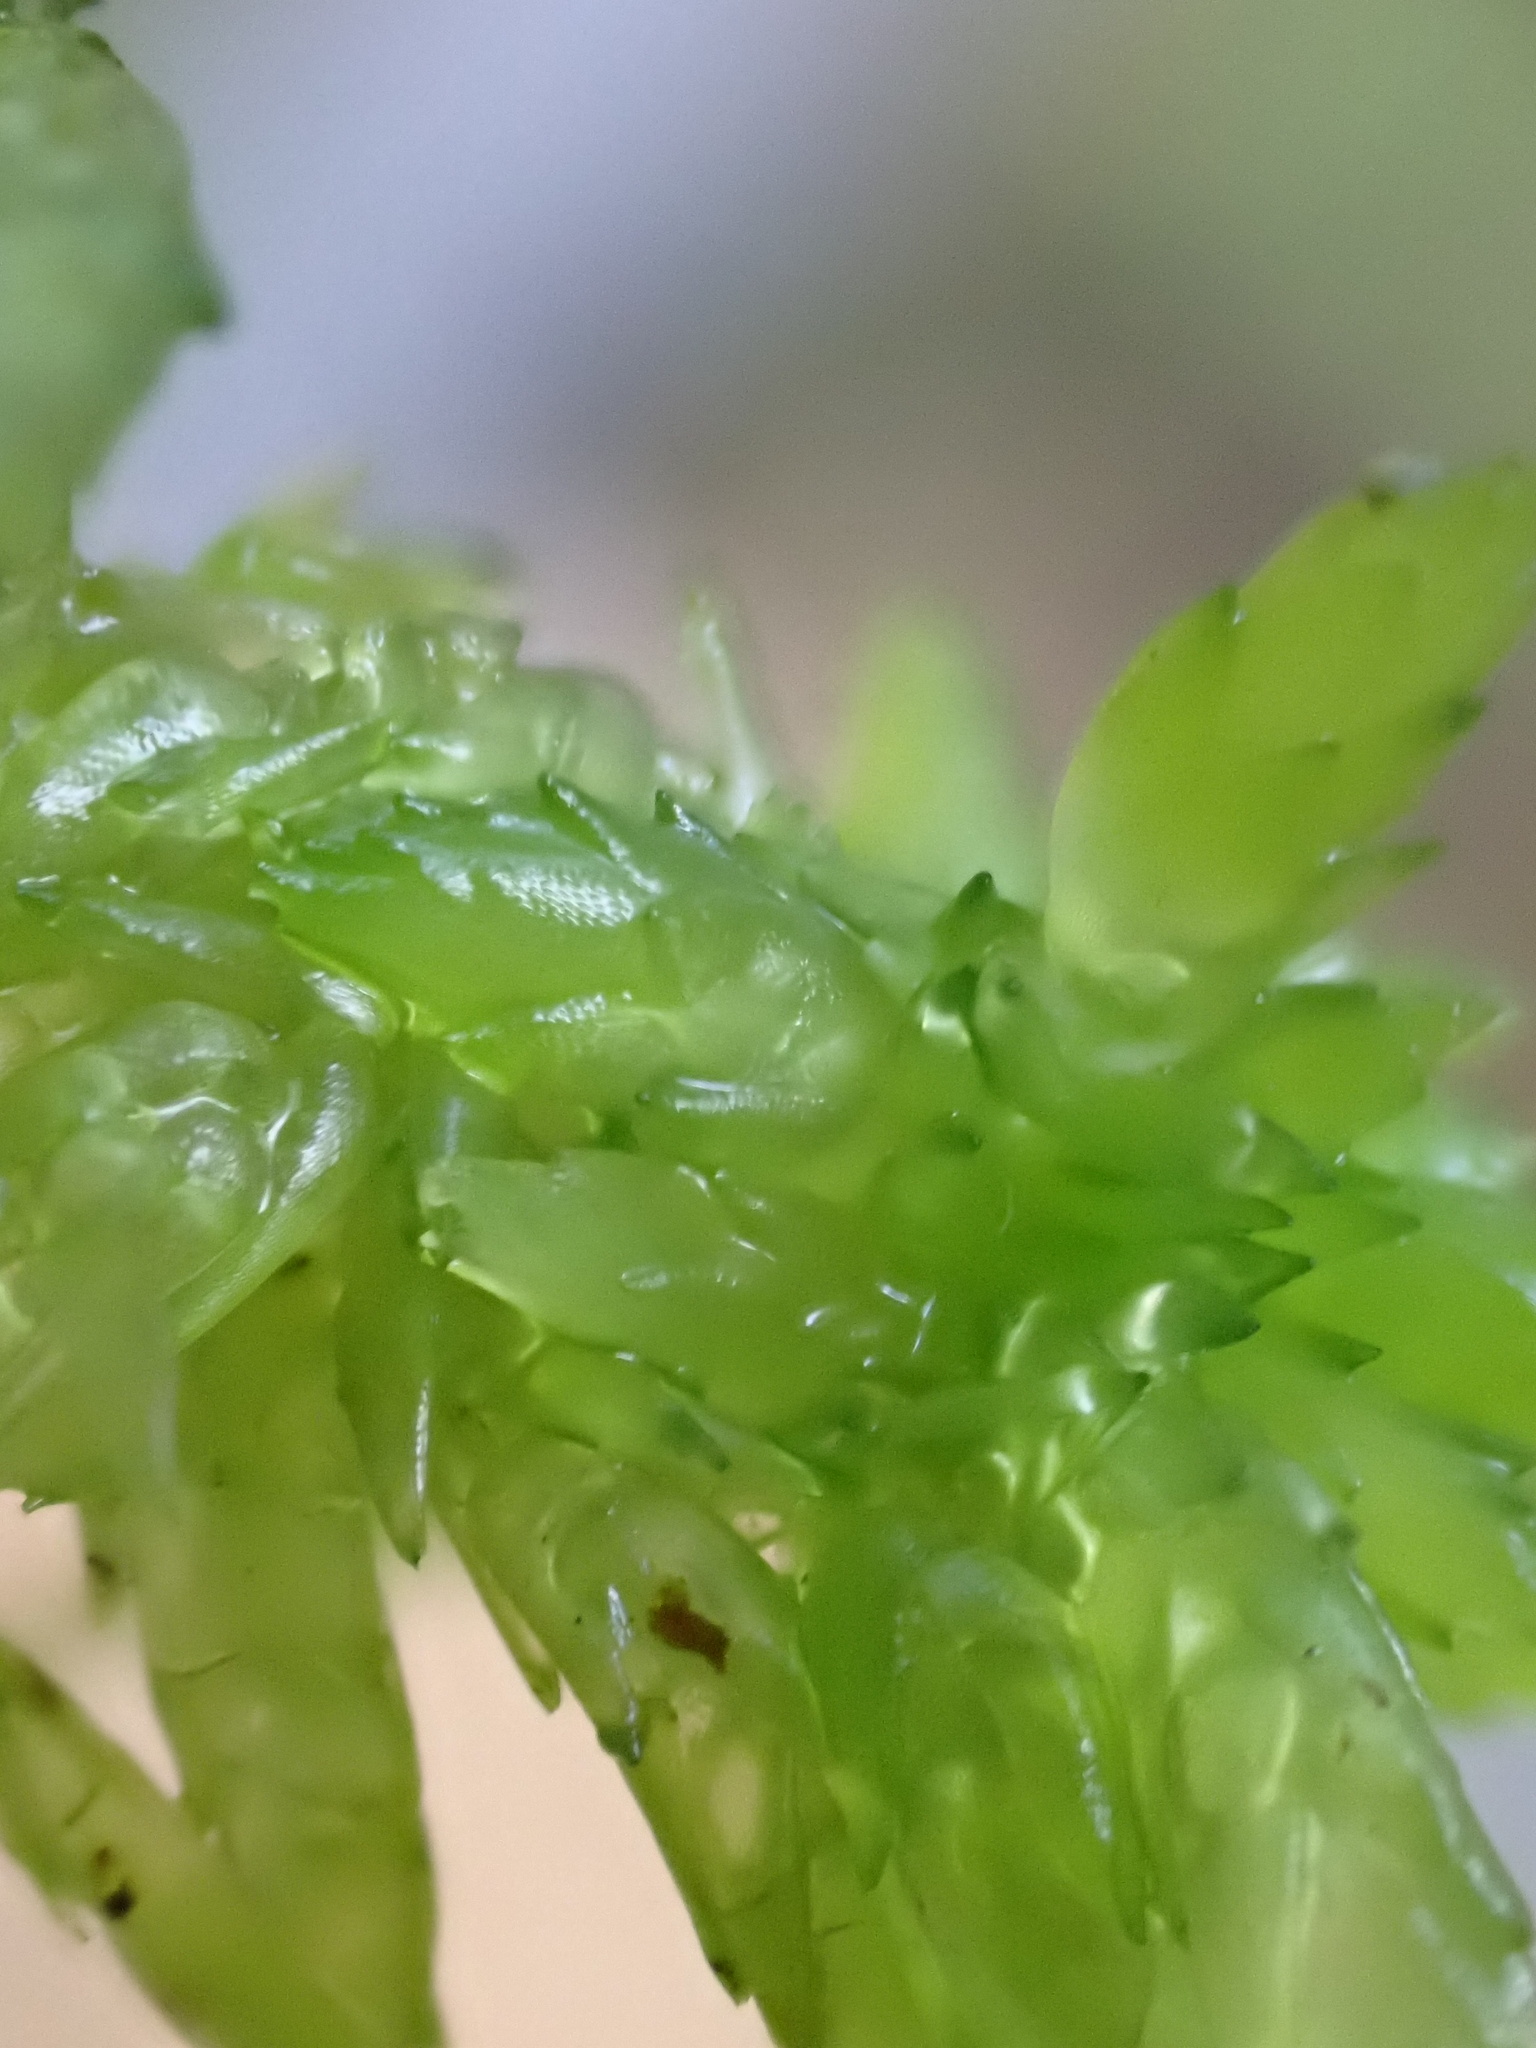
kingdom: Plantae
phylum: Bryophyta
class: Sphagnopsida
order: Sphagnales
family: Sphagnaceae
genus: Sphagnum
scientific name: Sphagnum denticulatum
